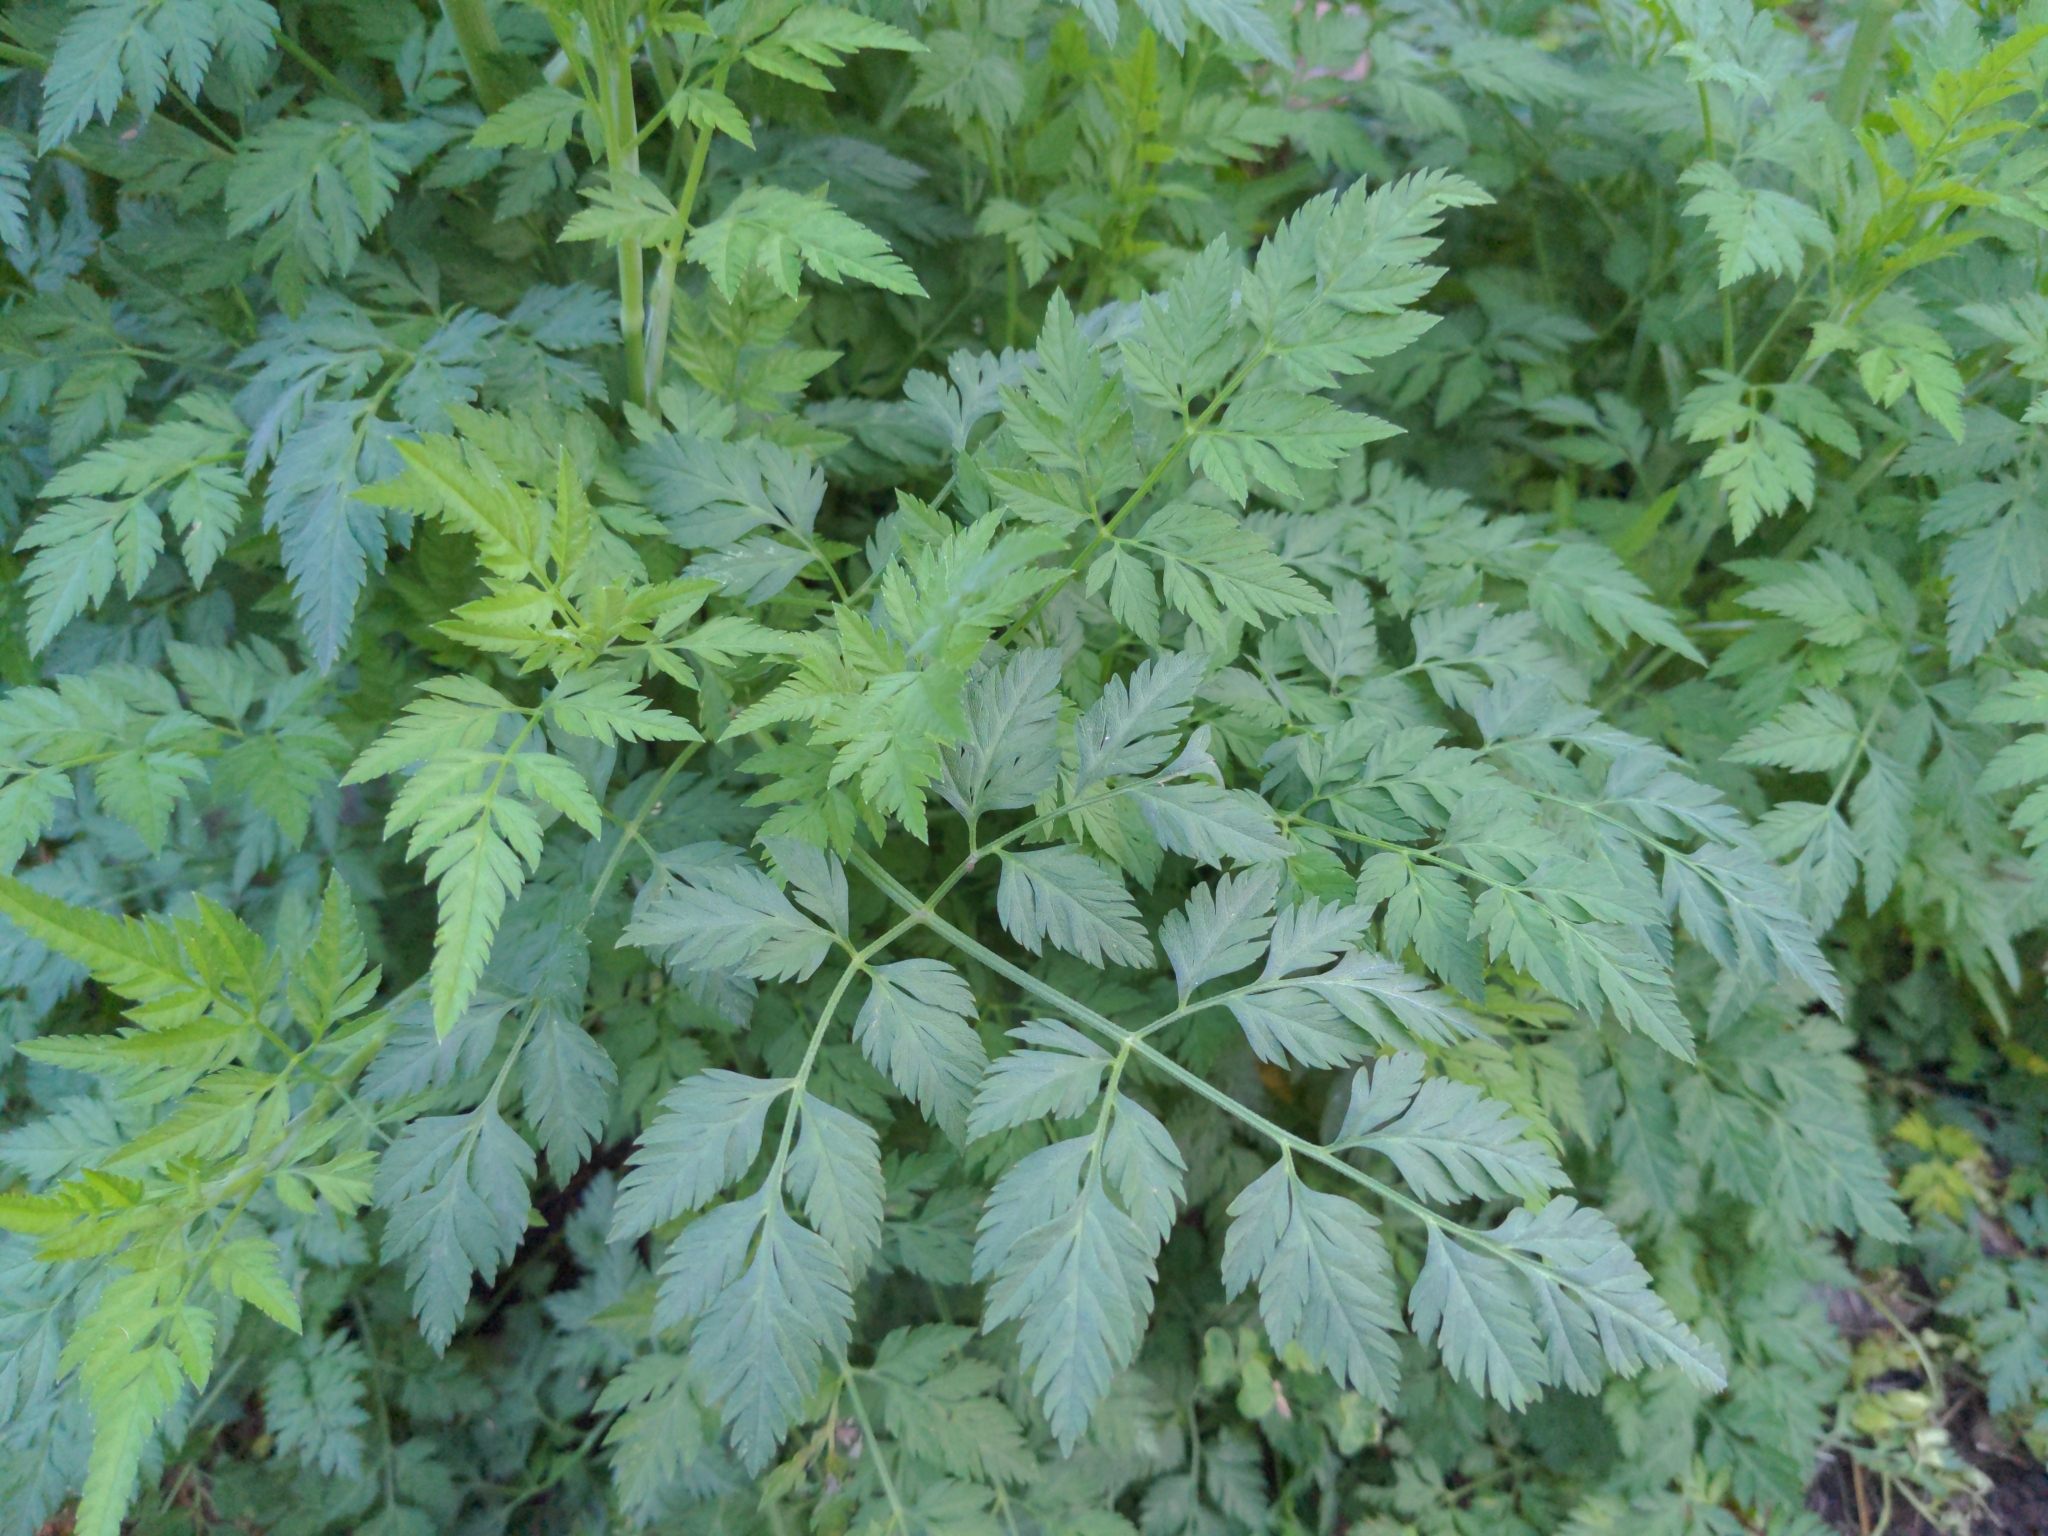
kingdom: Plantae
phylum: Tracheophyta
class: Magnoliopsida
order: Apiales
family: Apiaceae
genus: Torilis
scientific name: Torilis arvensis
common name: Spreading hedge-parsley
